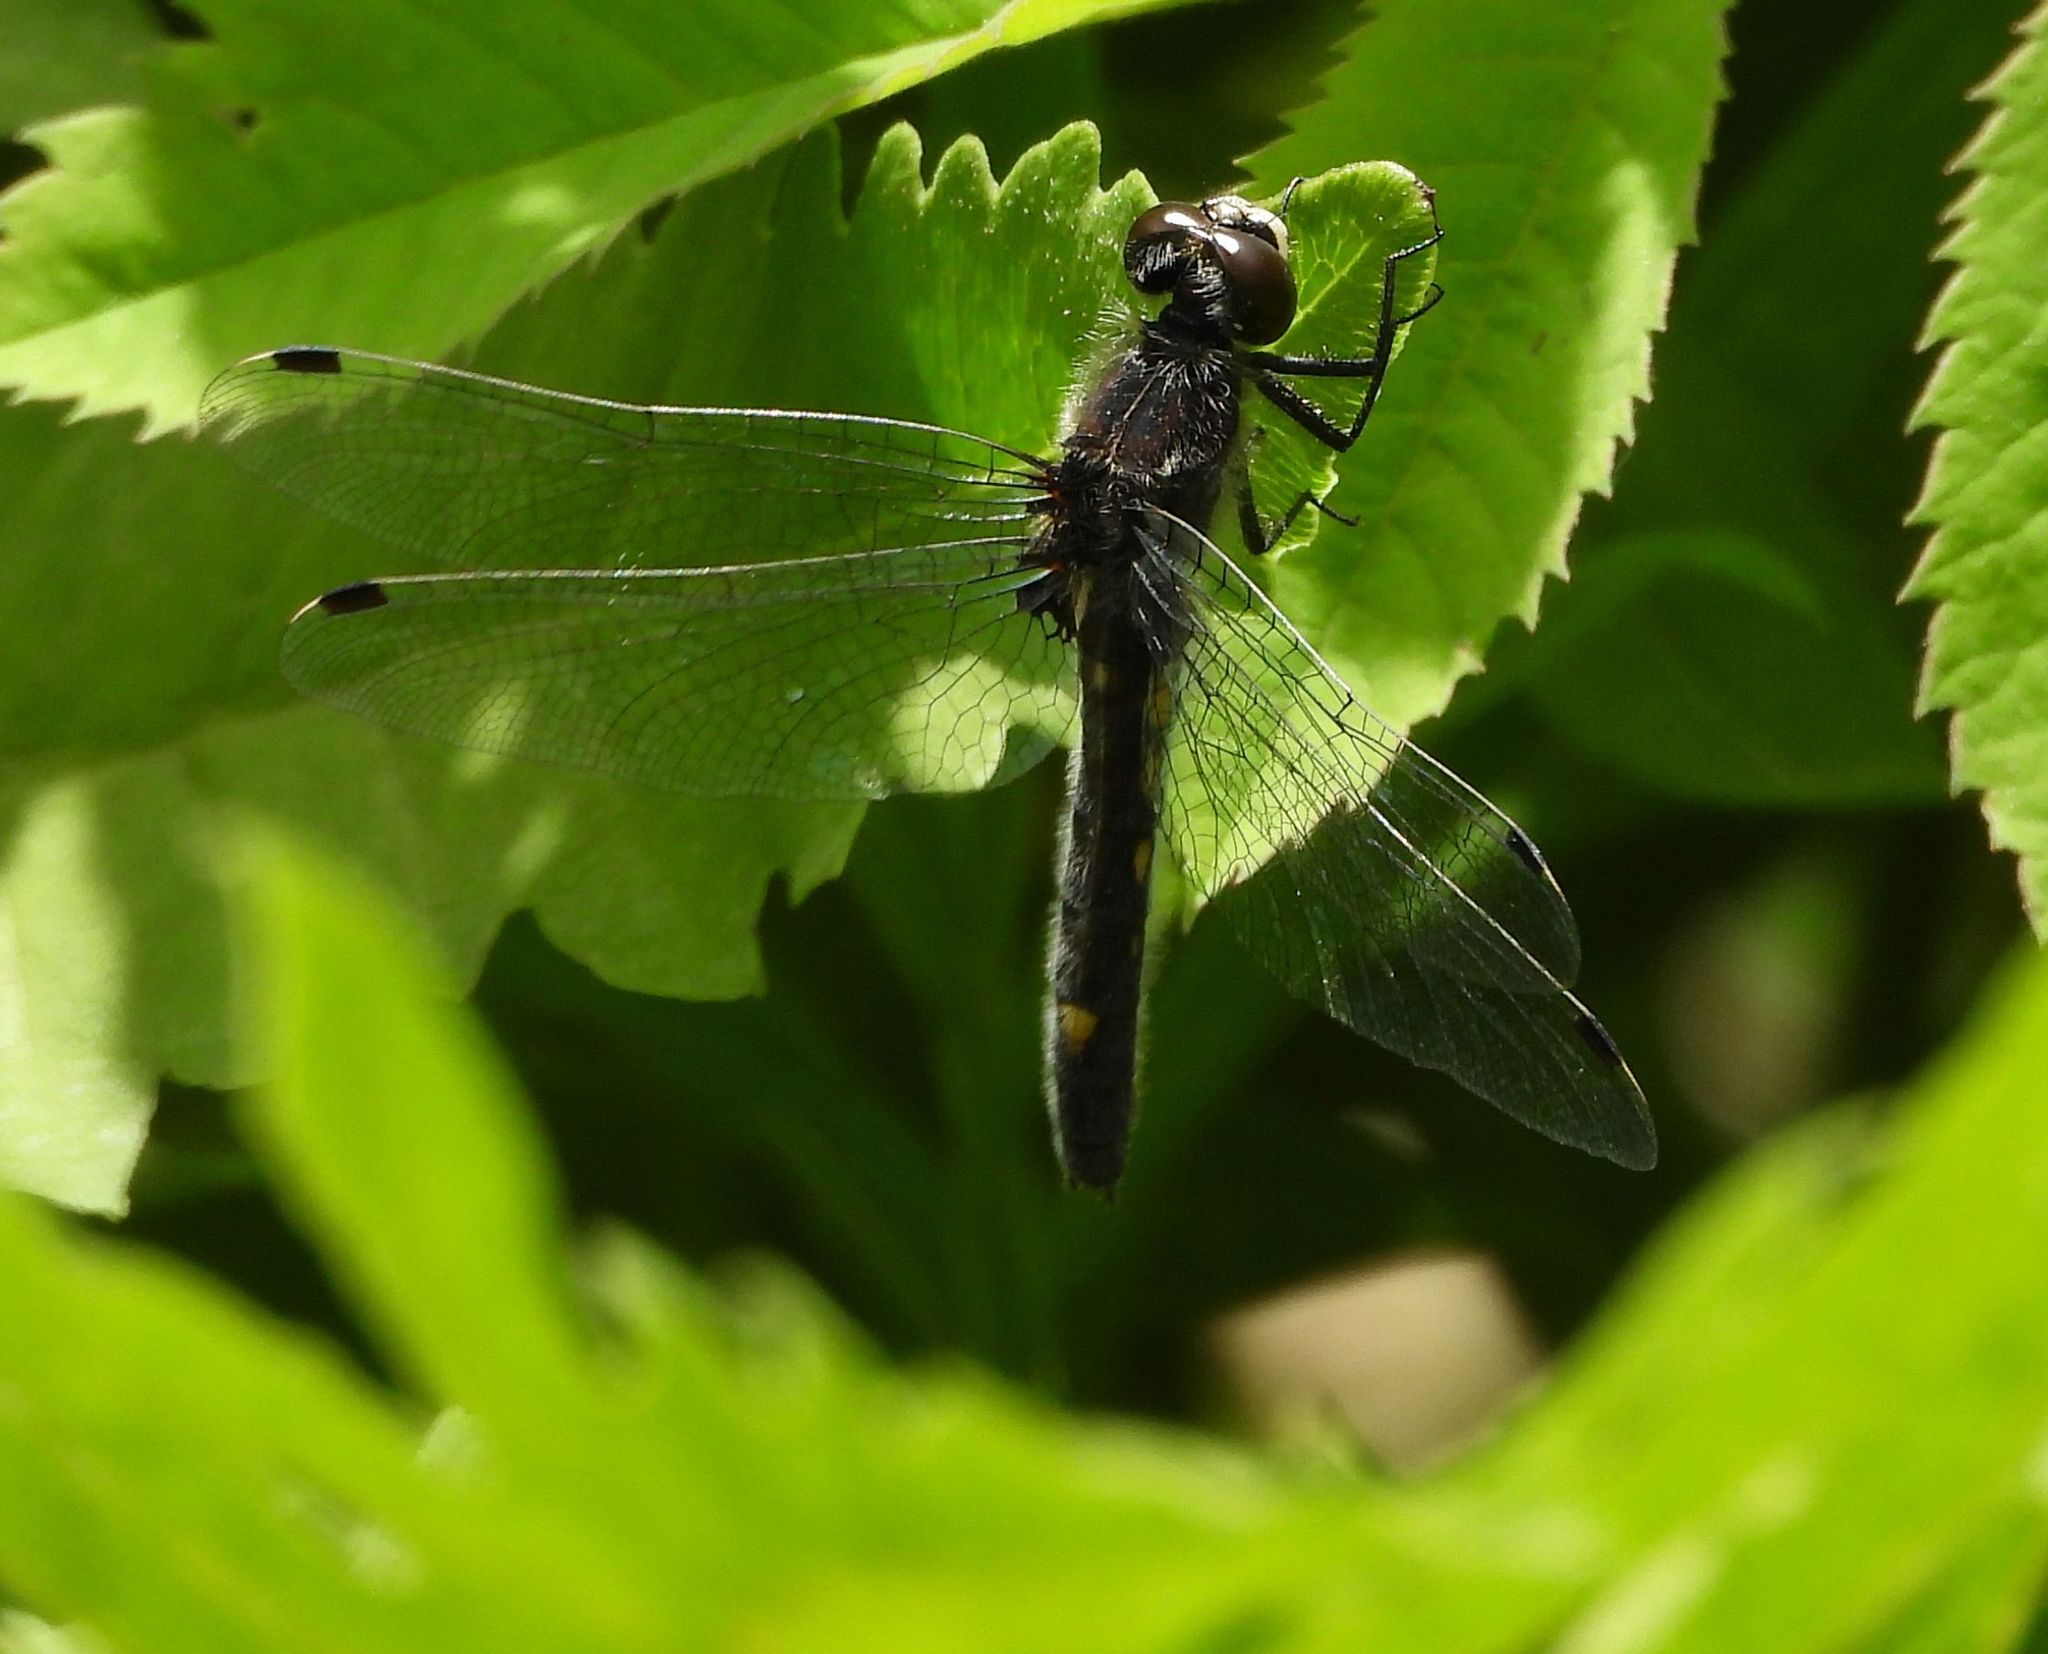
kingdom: Animalia
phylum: Arthropoda
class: Insecta
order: Odonata
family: Libellulidae
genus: Leucorrhinia
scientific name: Leucorrhinia intacta
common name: Dot-tailed whiteface
